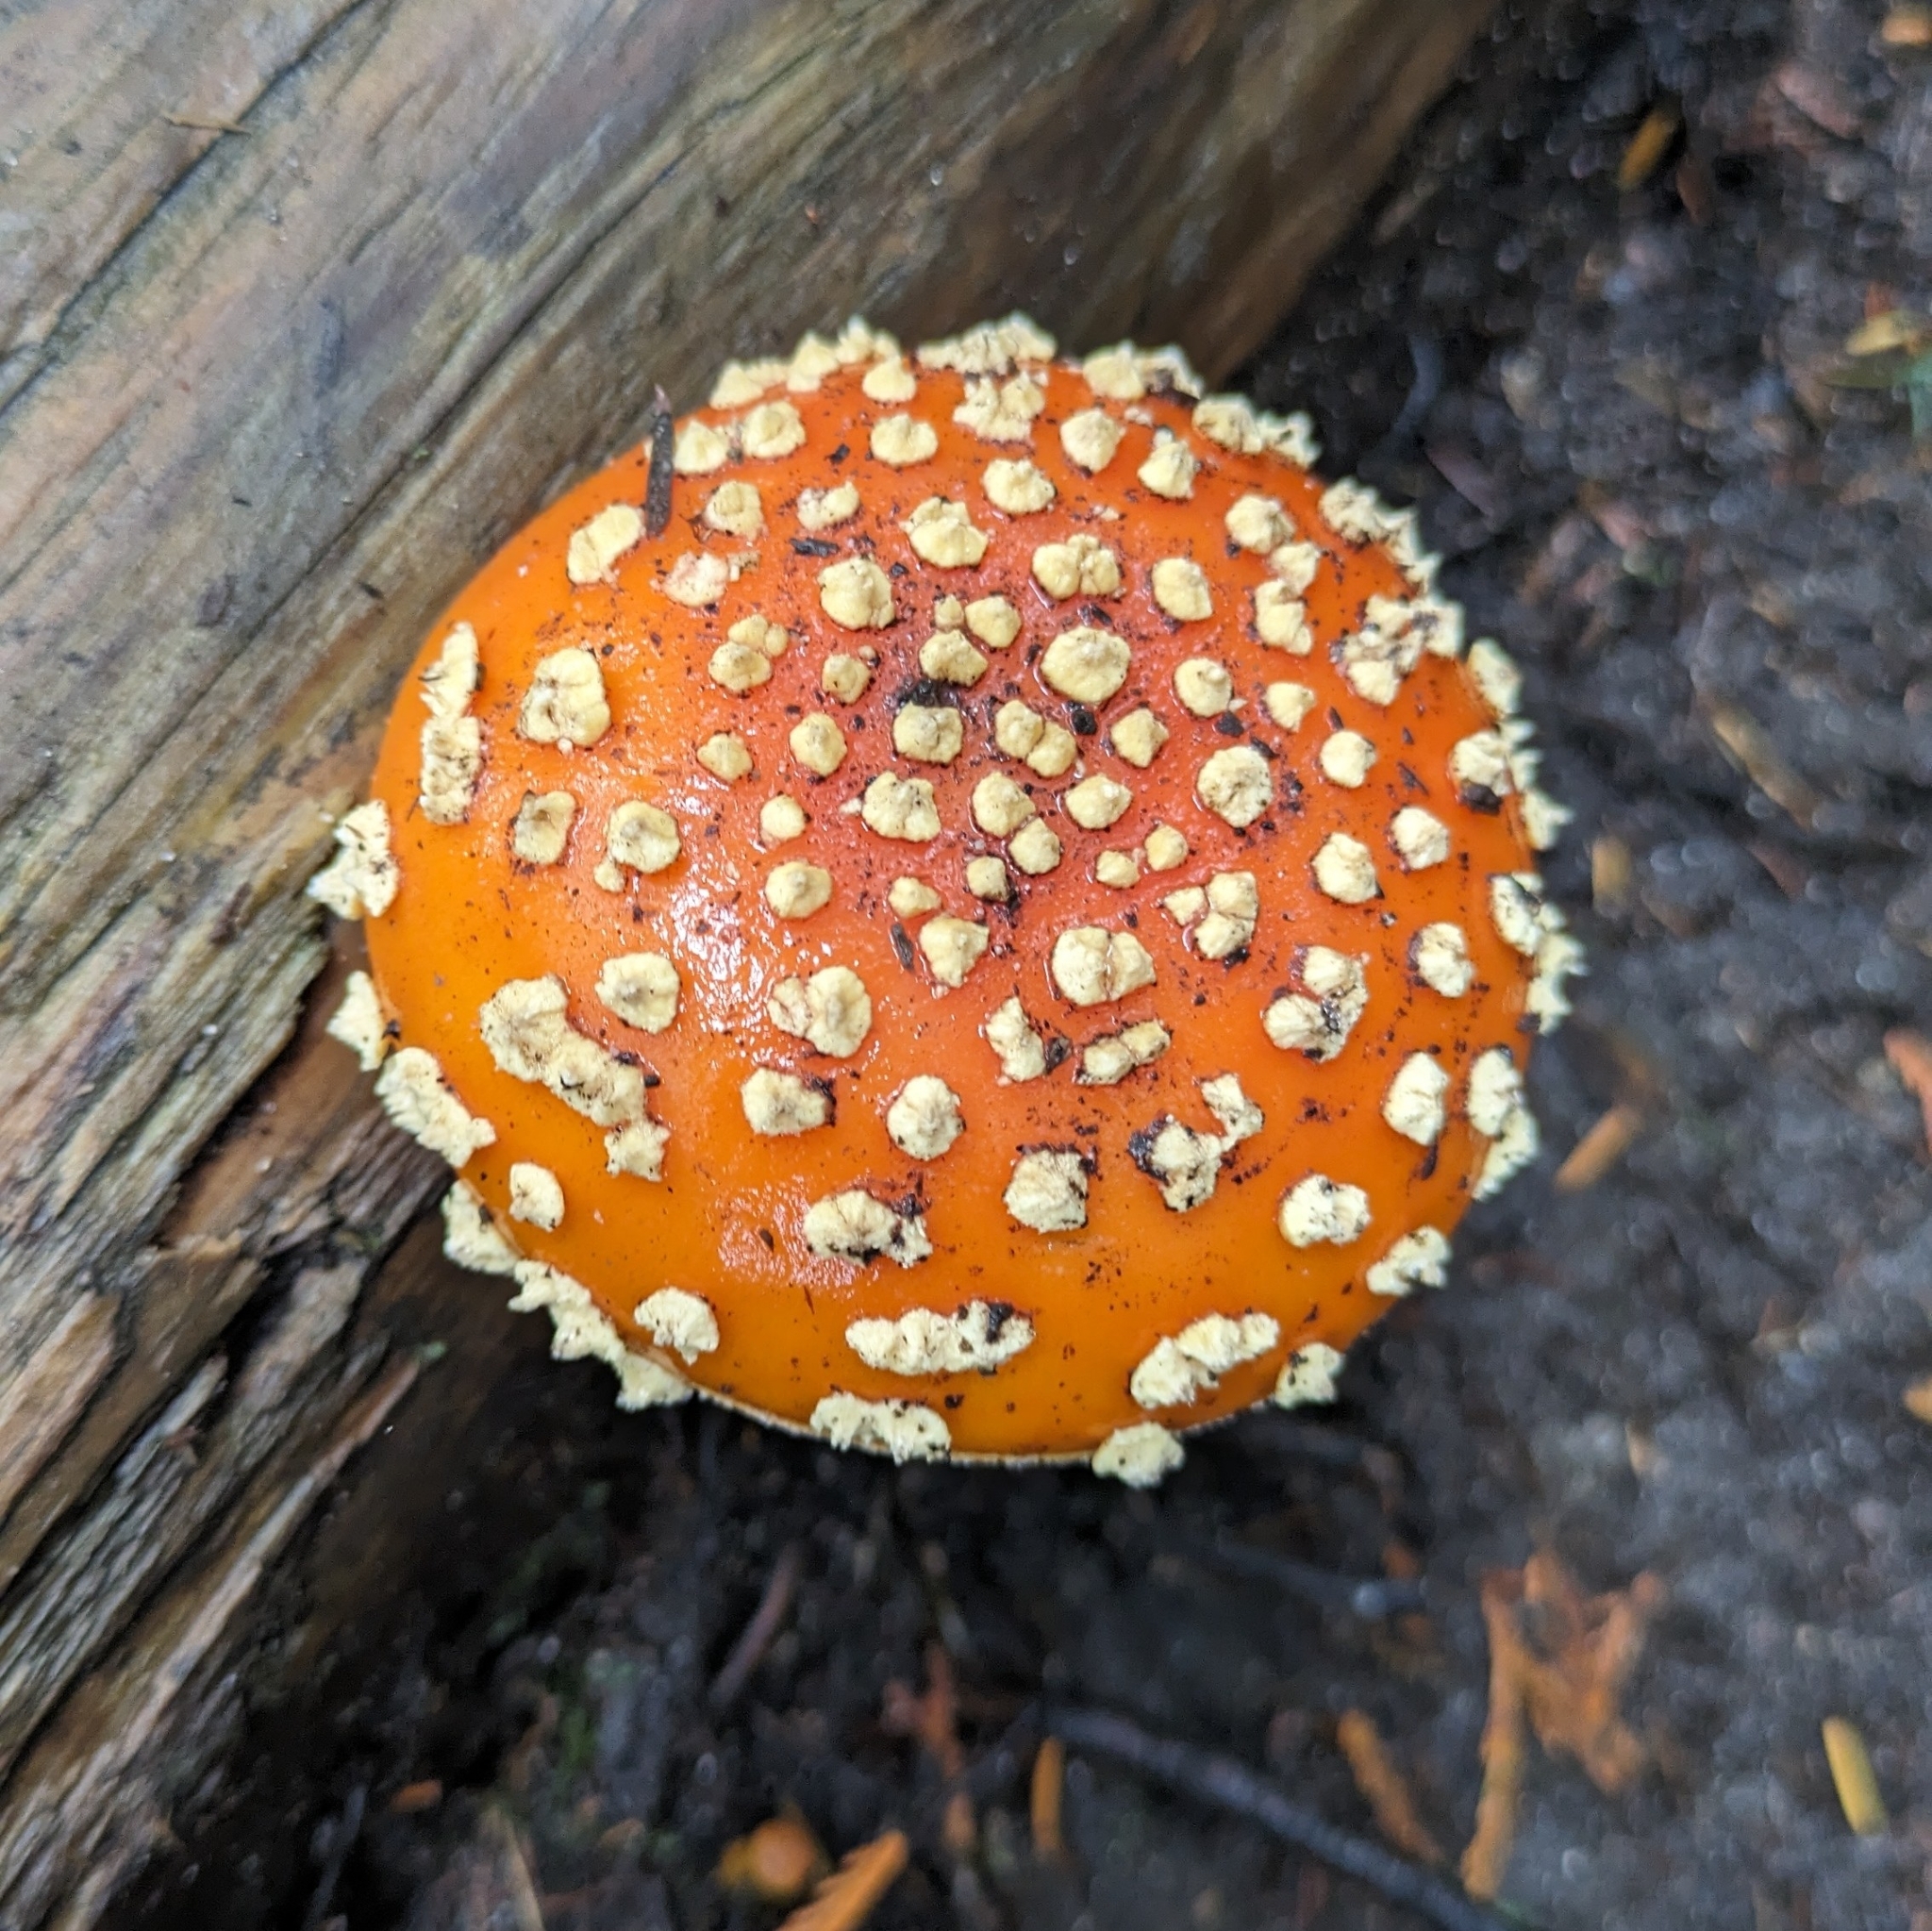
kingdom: Fungi
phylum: Basidiomycota
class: Agaricomycetes
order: Agaricales
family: Amanitaceae
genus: Amanita
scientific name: Amanita muscaria
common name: Fly agaric
